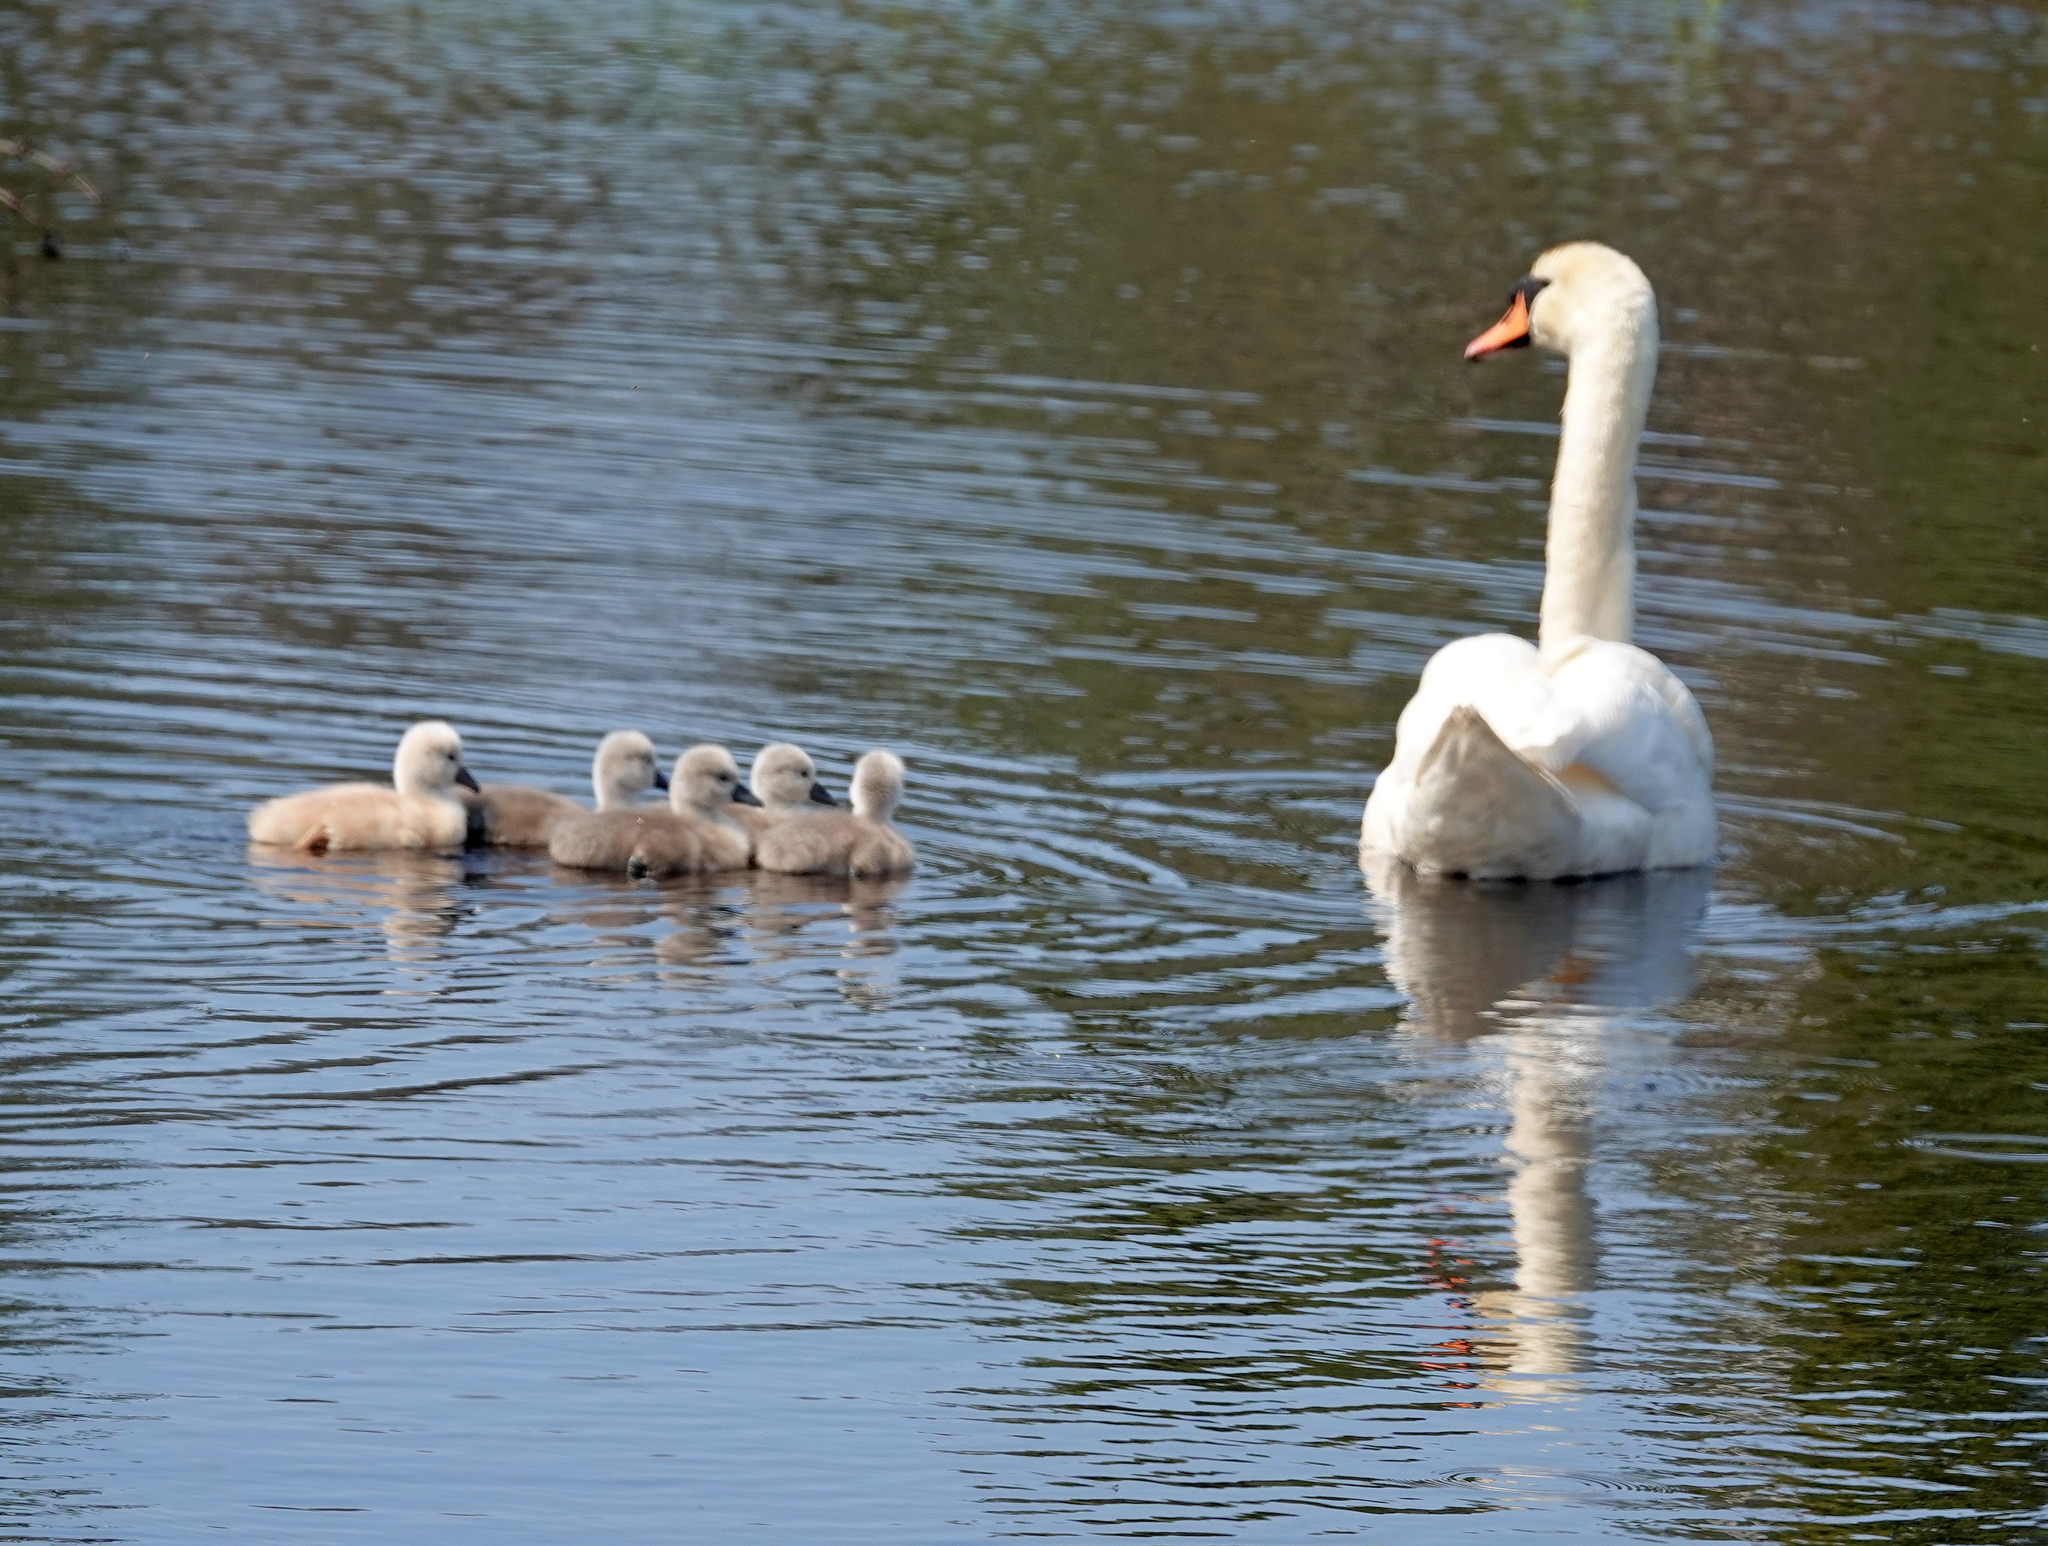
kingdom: Animalia
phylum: Chordata
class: Aves
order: Anseriformes
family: Anatidae
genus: Cygnus
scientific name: Cygnus olor
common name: Mute swan
